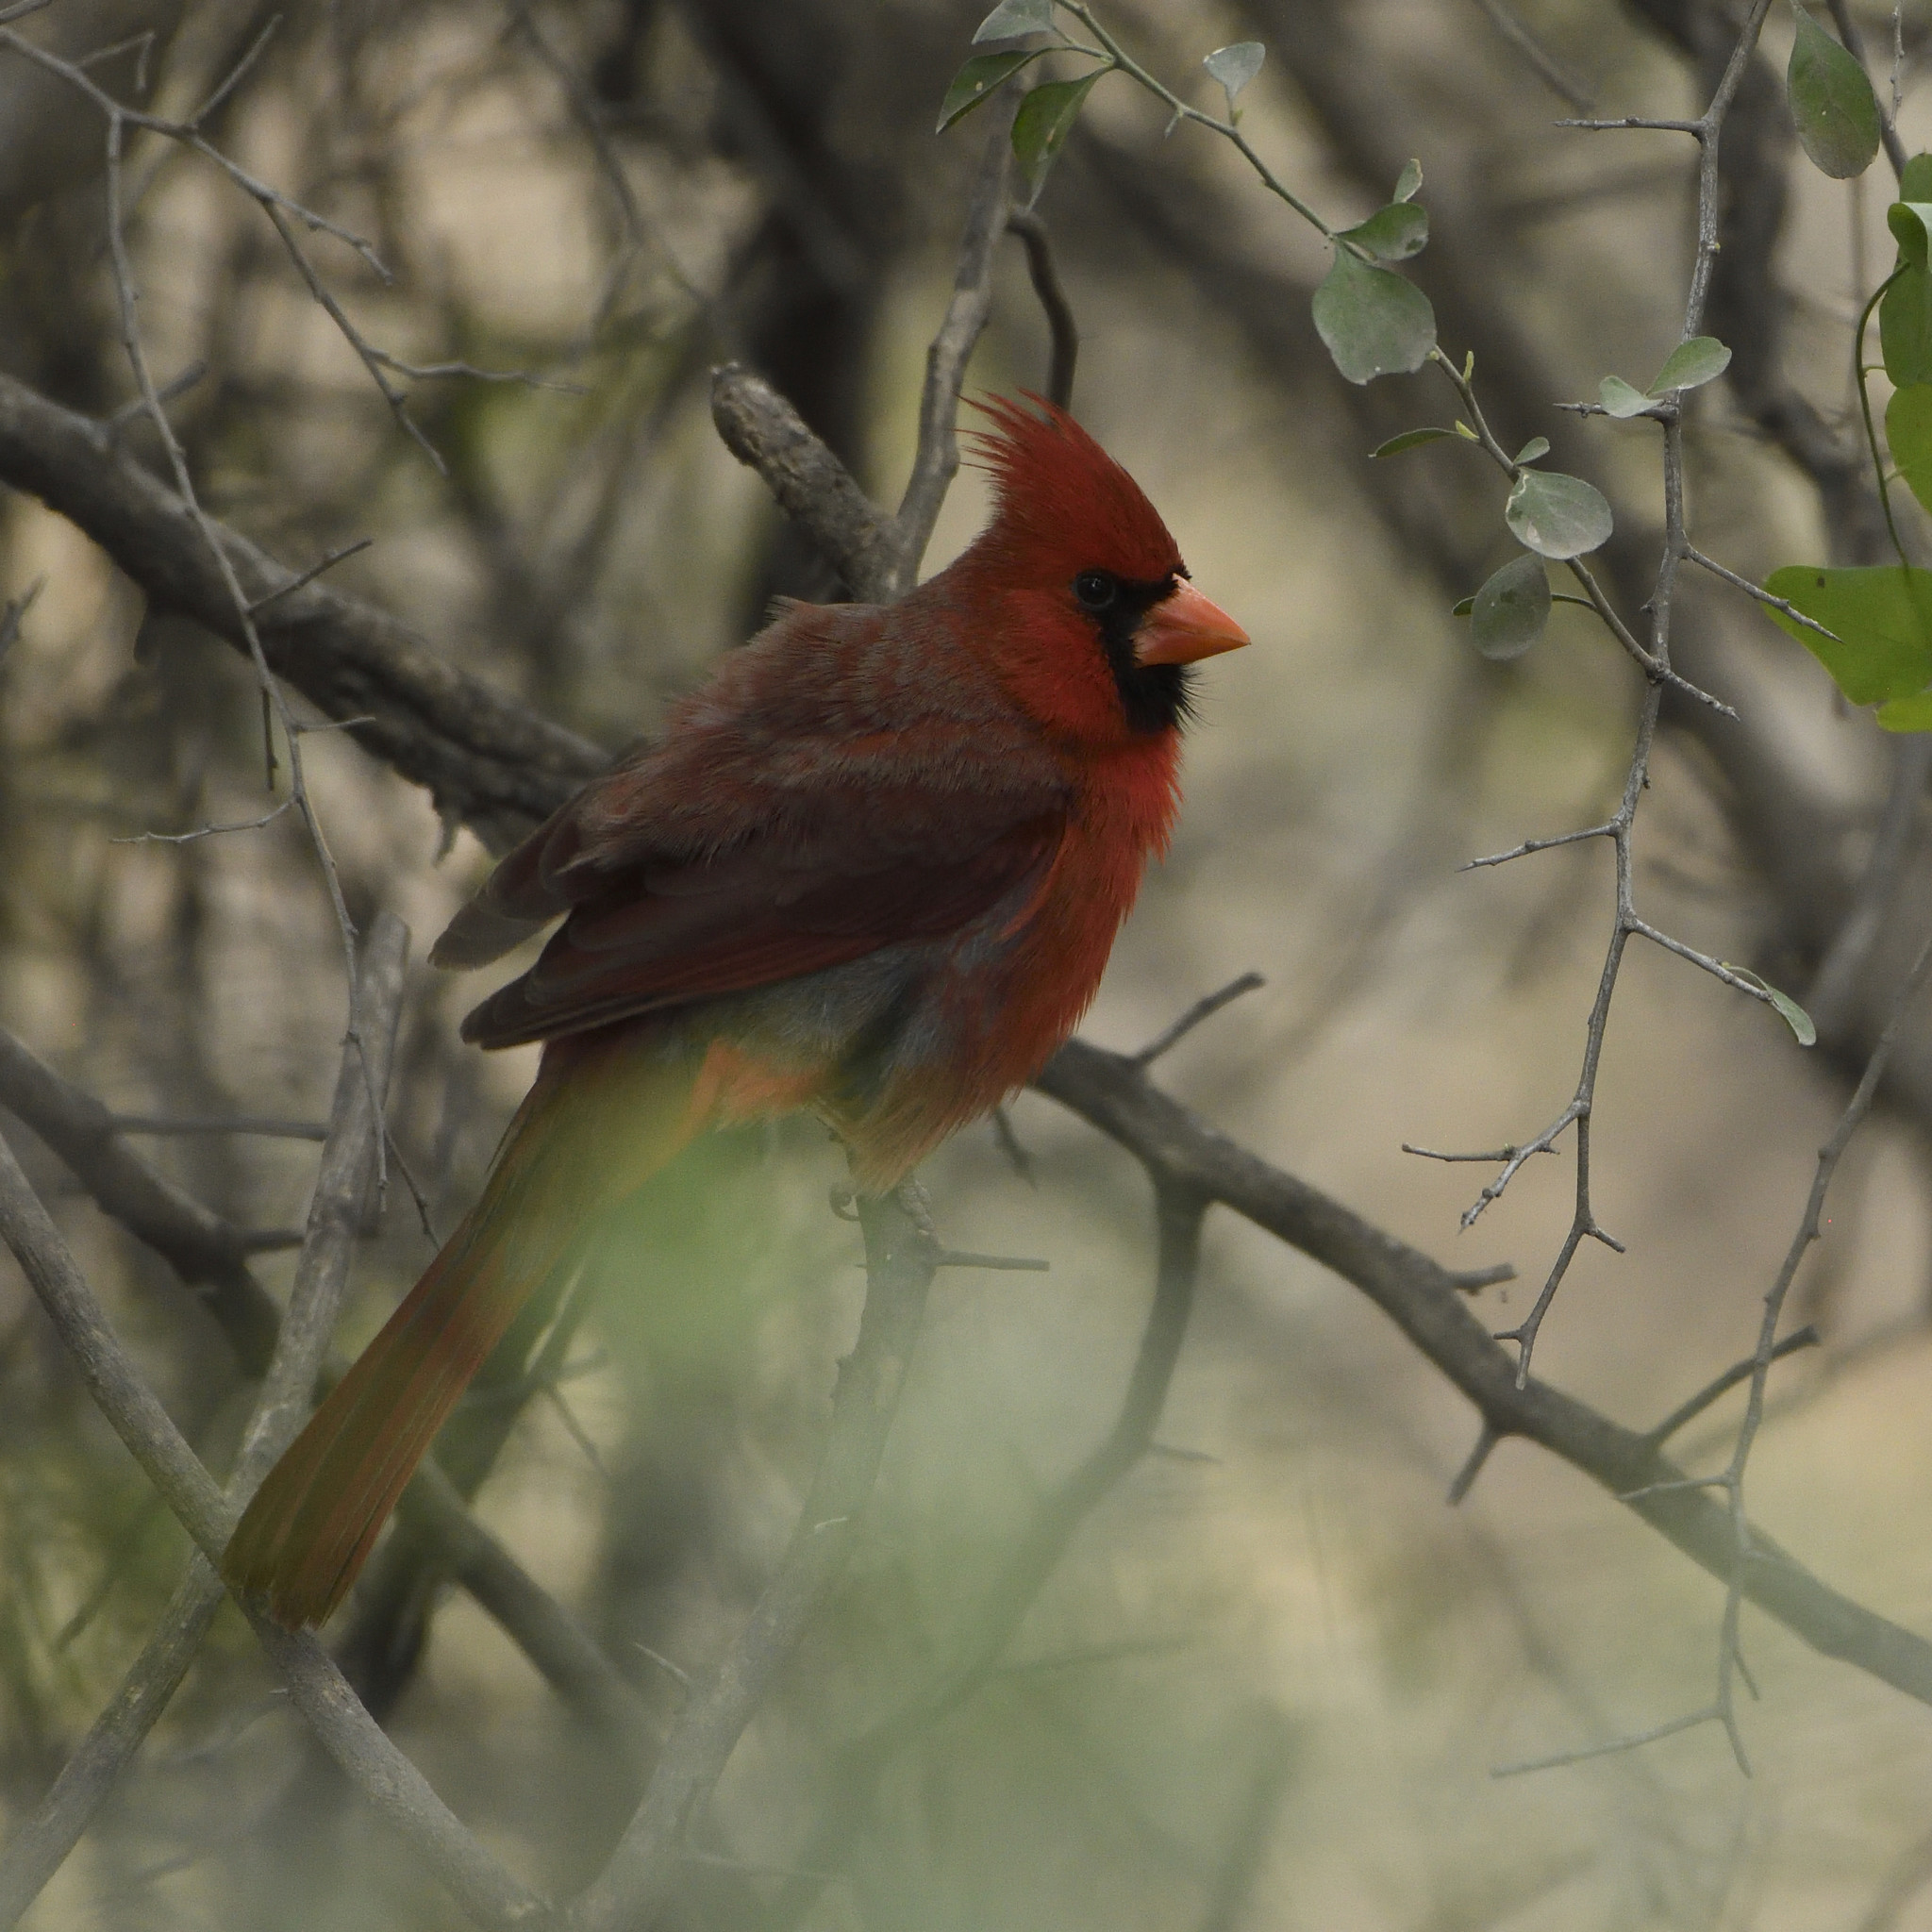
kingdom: Animalia
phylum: Chordata
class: Aves
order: Passeriformes
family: Cardinalidae
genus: Cardinalis
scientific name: Cardinalis cardinalis
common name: Northern cardinal
